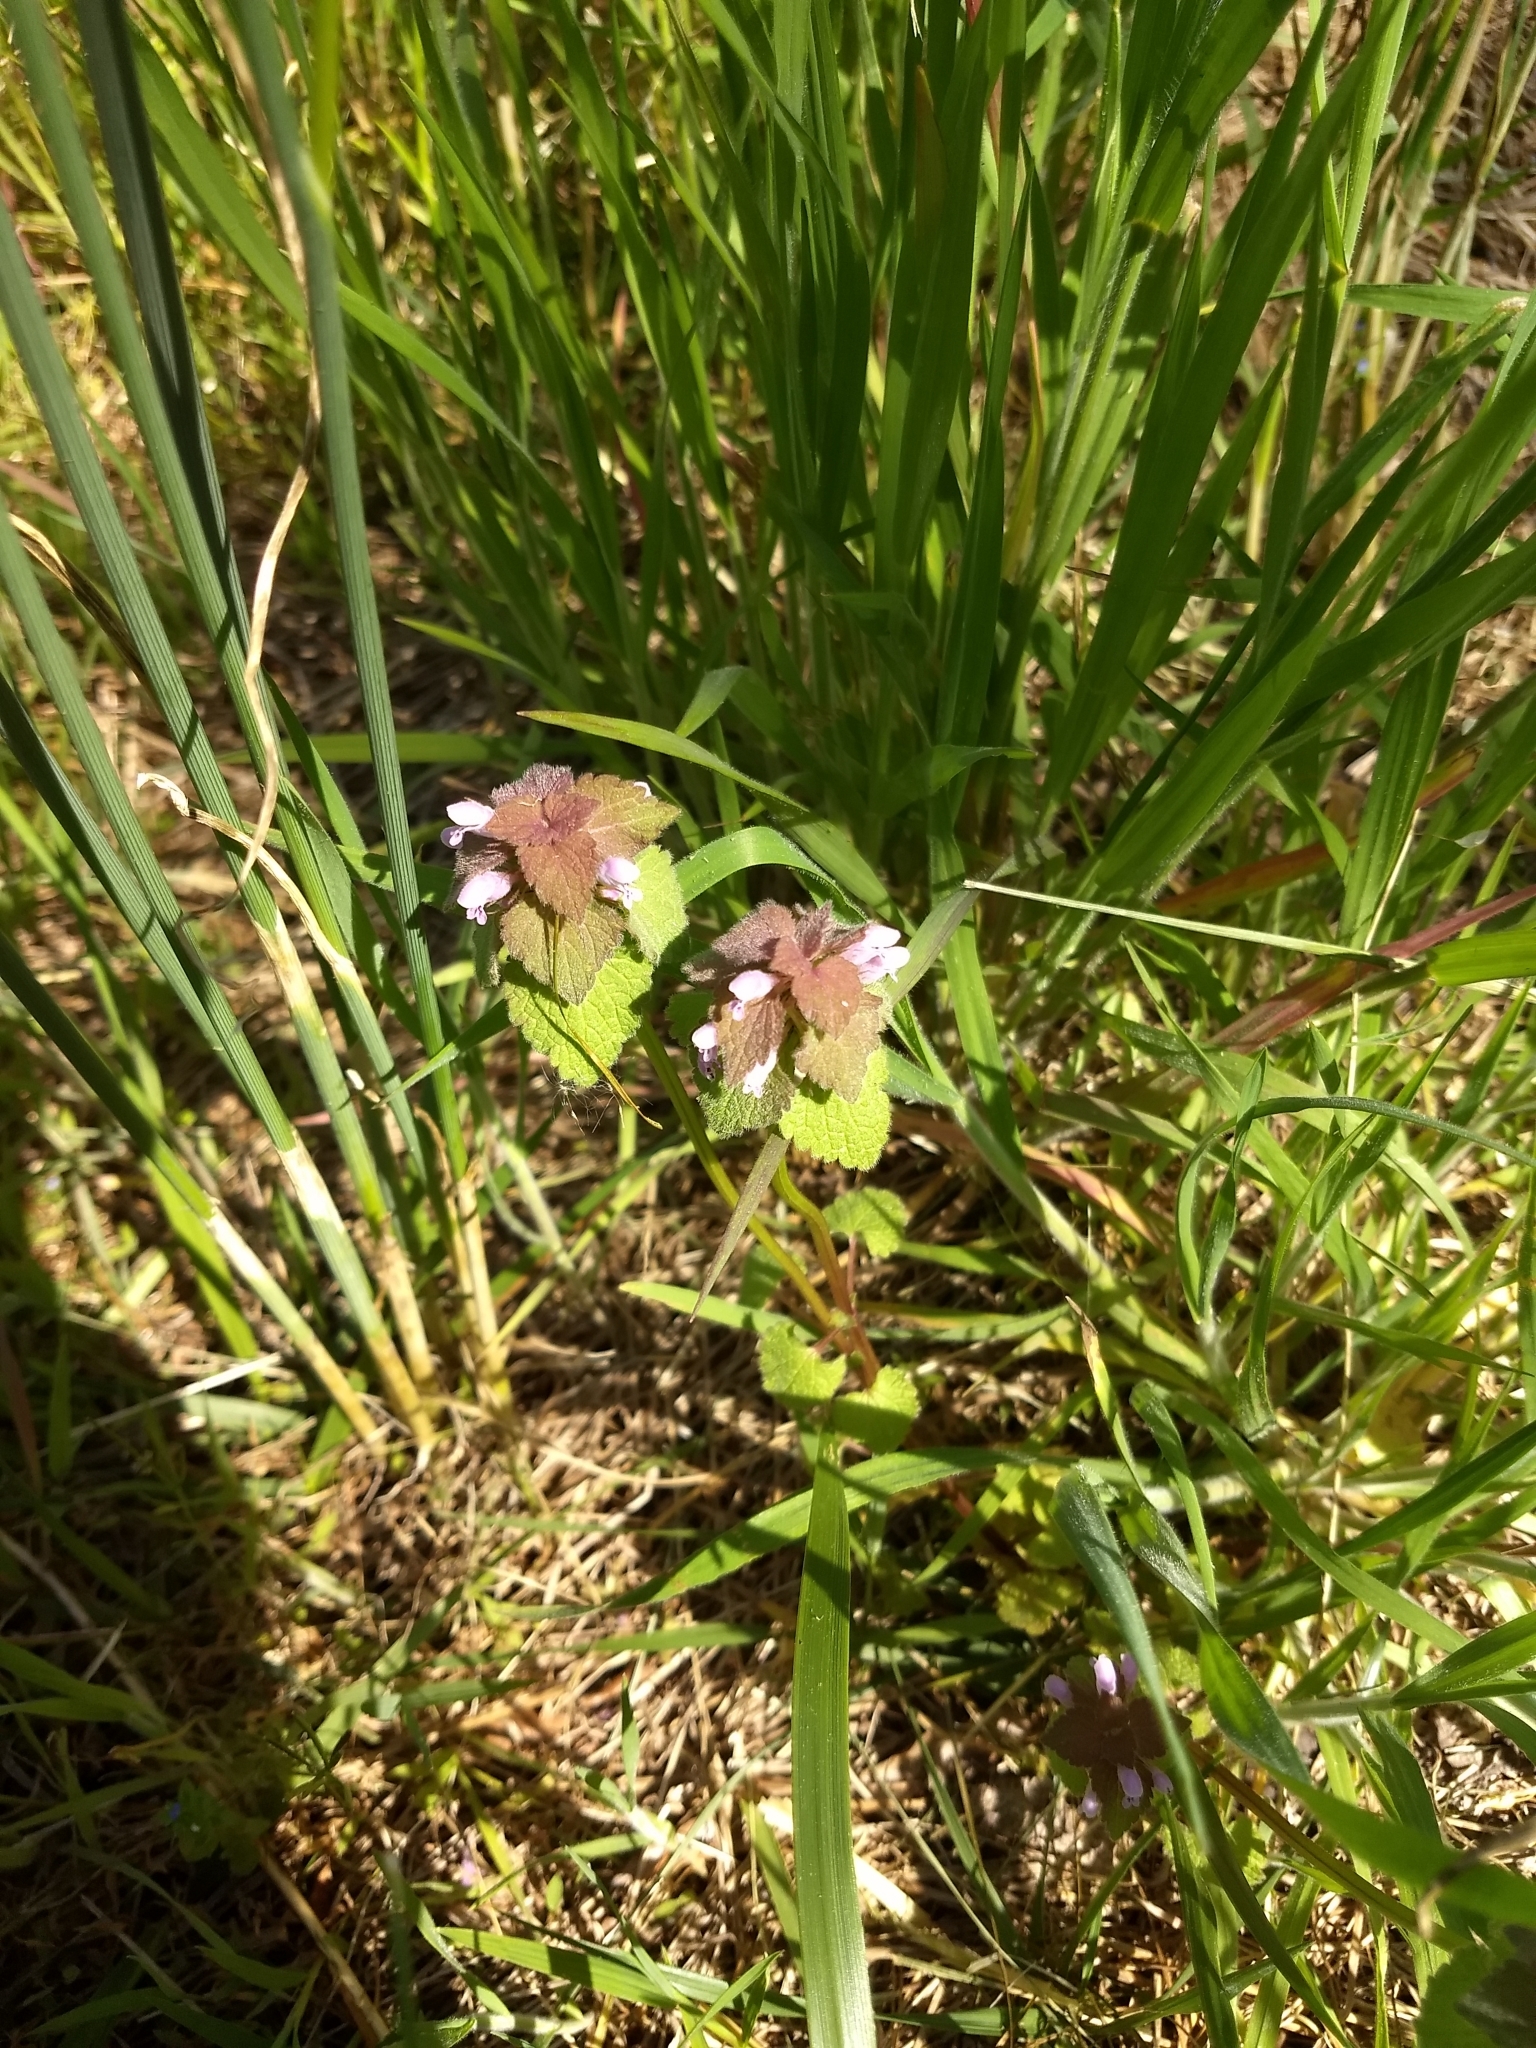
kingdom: Plantae
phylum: Tracheophyta
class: Magnoliopsida
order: Lamiales
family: Lamiaceae
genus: Lamium
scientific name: Lamium purpureum
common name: Red dead-nettle
